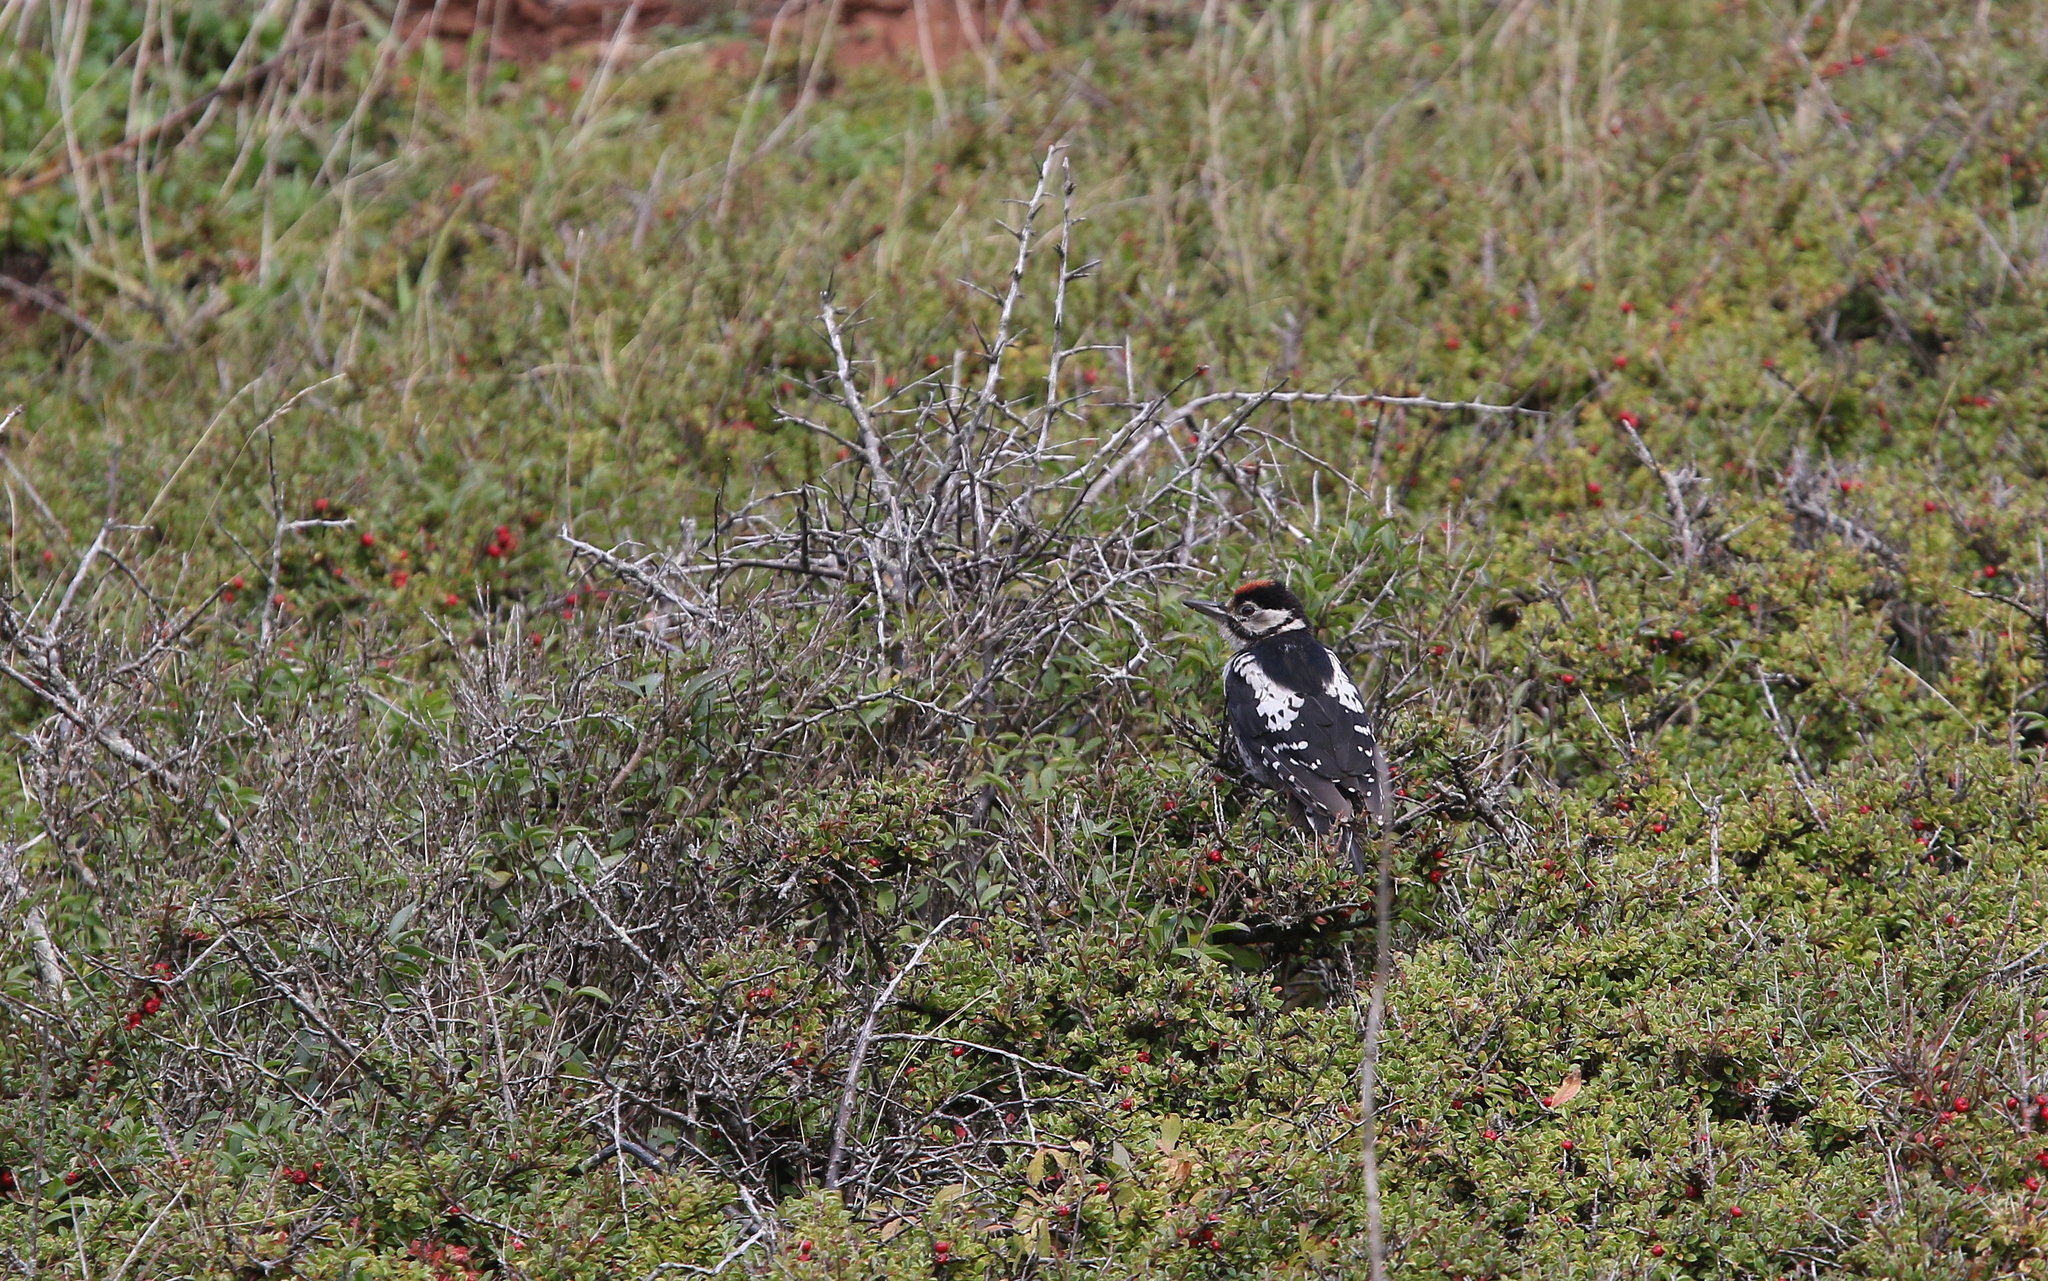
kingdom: Animalia
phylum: Chordata
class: Aves
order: Piciformes
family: Picidae
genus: Dendrocopos
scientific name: Dendrocopos major
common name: Great spotted woodpecker
